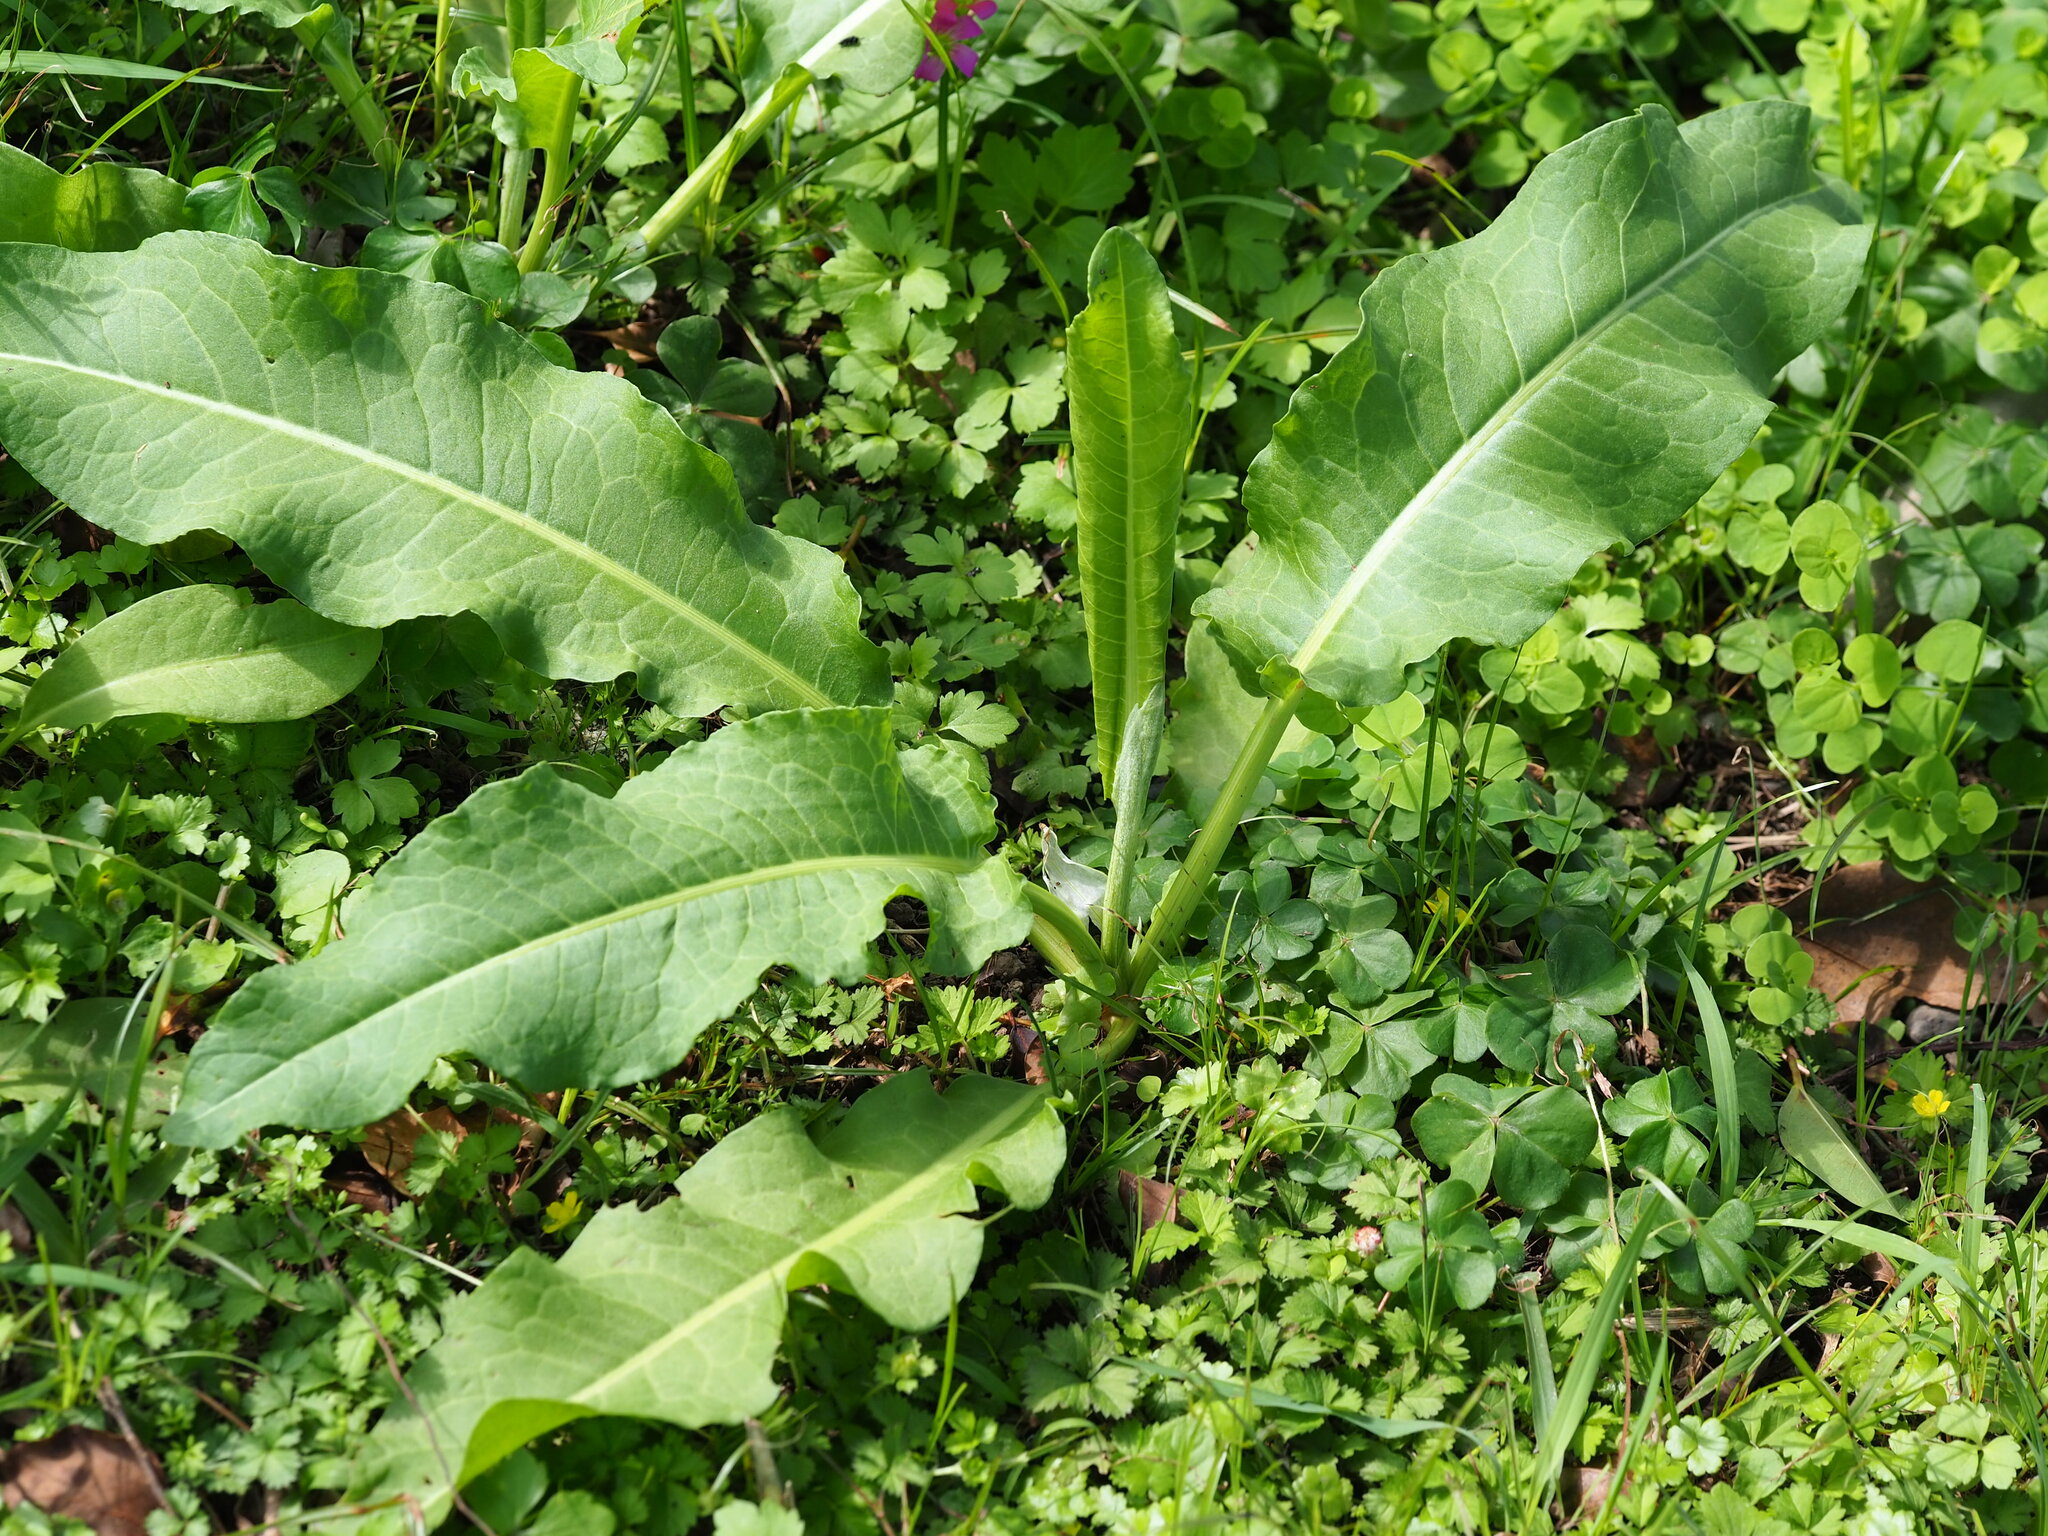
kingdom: Plantae
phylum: Tracheophyta
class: Magnoliopsida
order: Caryophyllales
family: Polygonaceae
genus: Rumex
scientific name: Rumex japonicus
